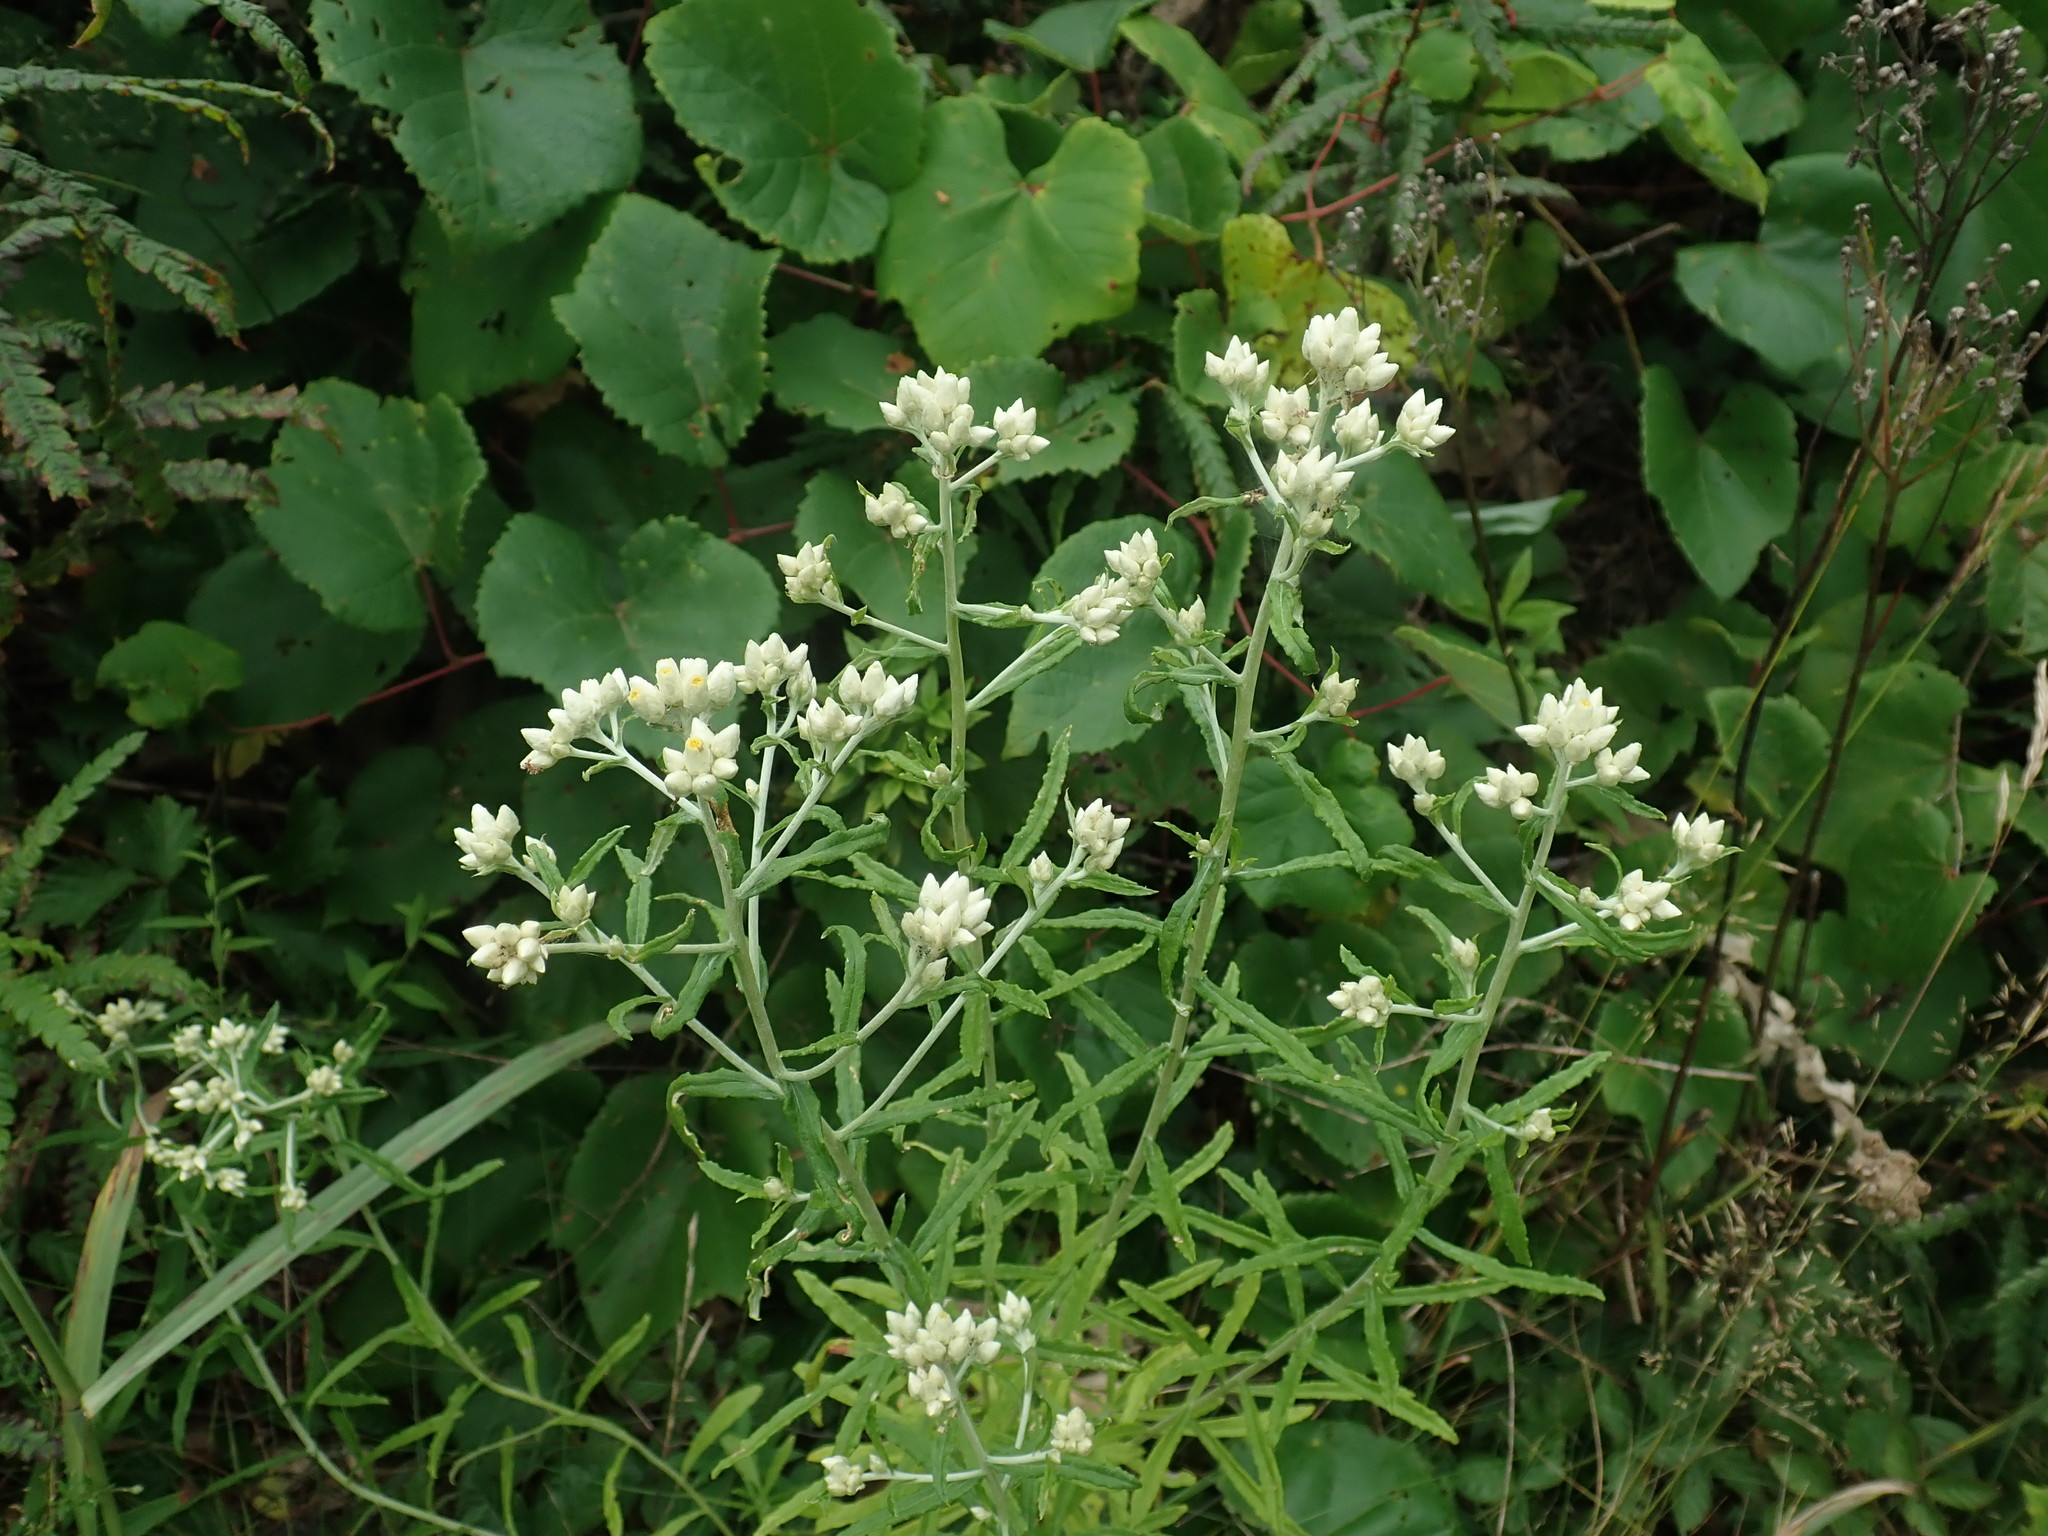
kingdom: Plantae
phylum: Tracheophyta
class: Magnoliopsida
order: Asterales
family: Asteraceae
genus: Pseudognaphalium
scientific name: Pseudognaphalium obtusifolium
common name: Eastern rabbit-tobacco
